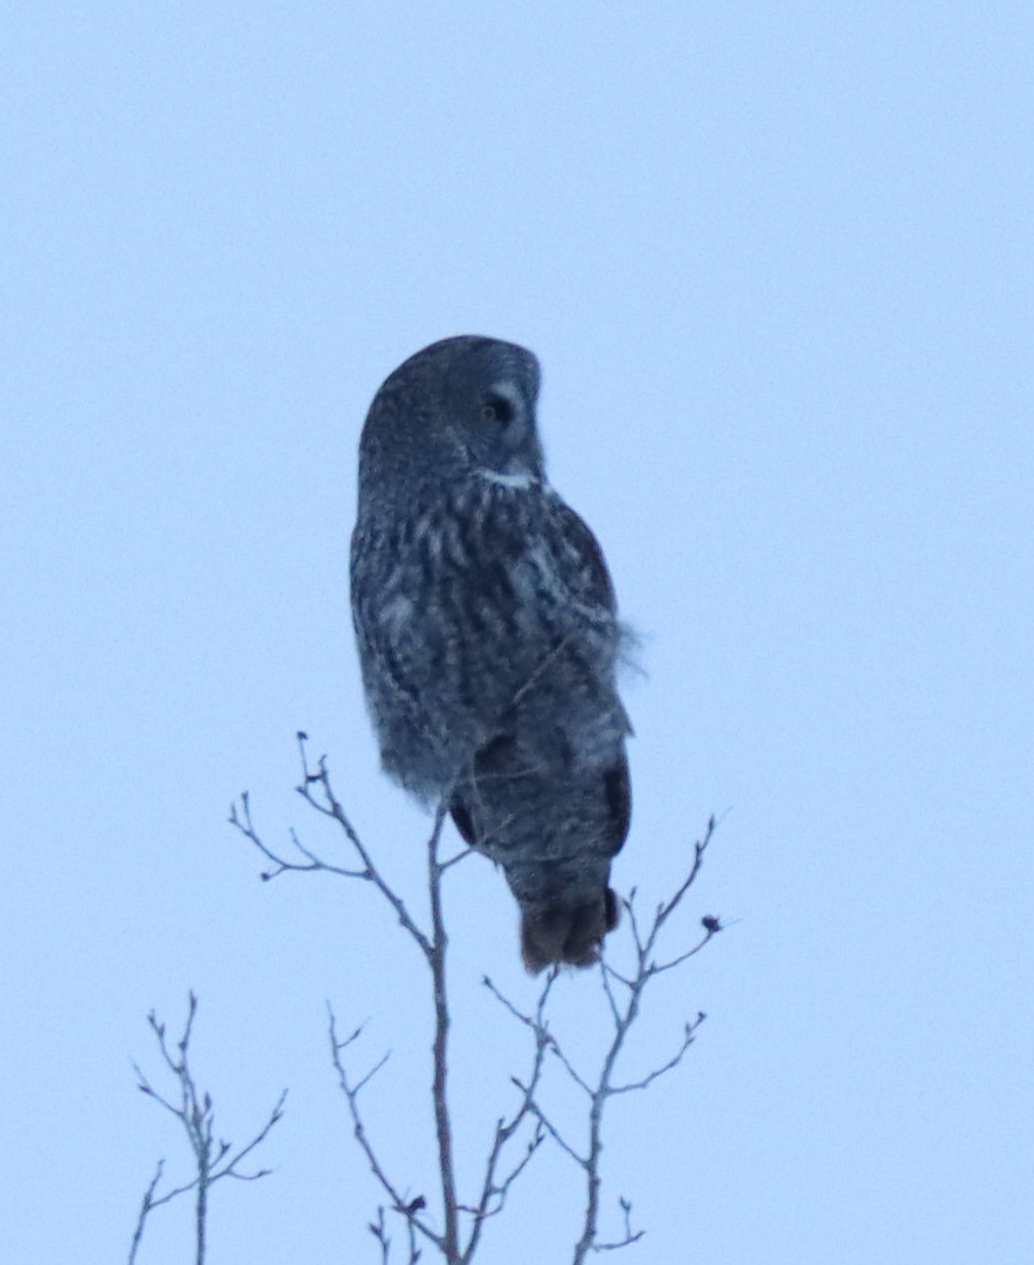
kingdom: Animalia
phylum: Chordata
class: Aves
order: Strigiformes
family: Strigidae
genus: Strix
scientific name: Strix nebulosa
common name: Great grey owl
